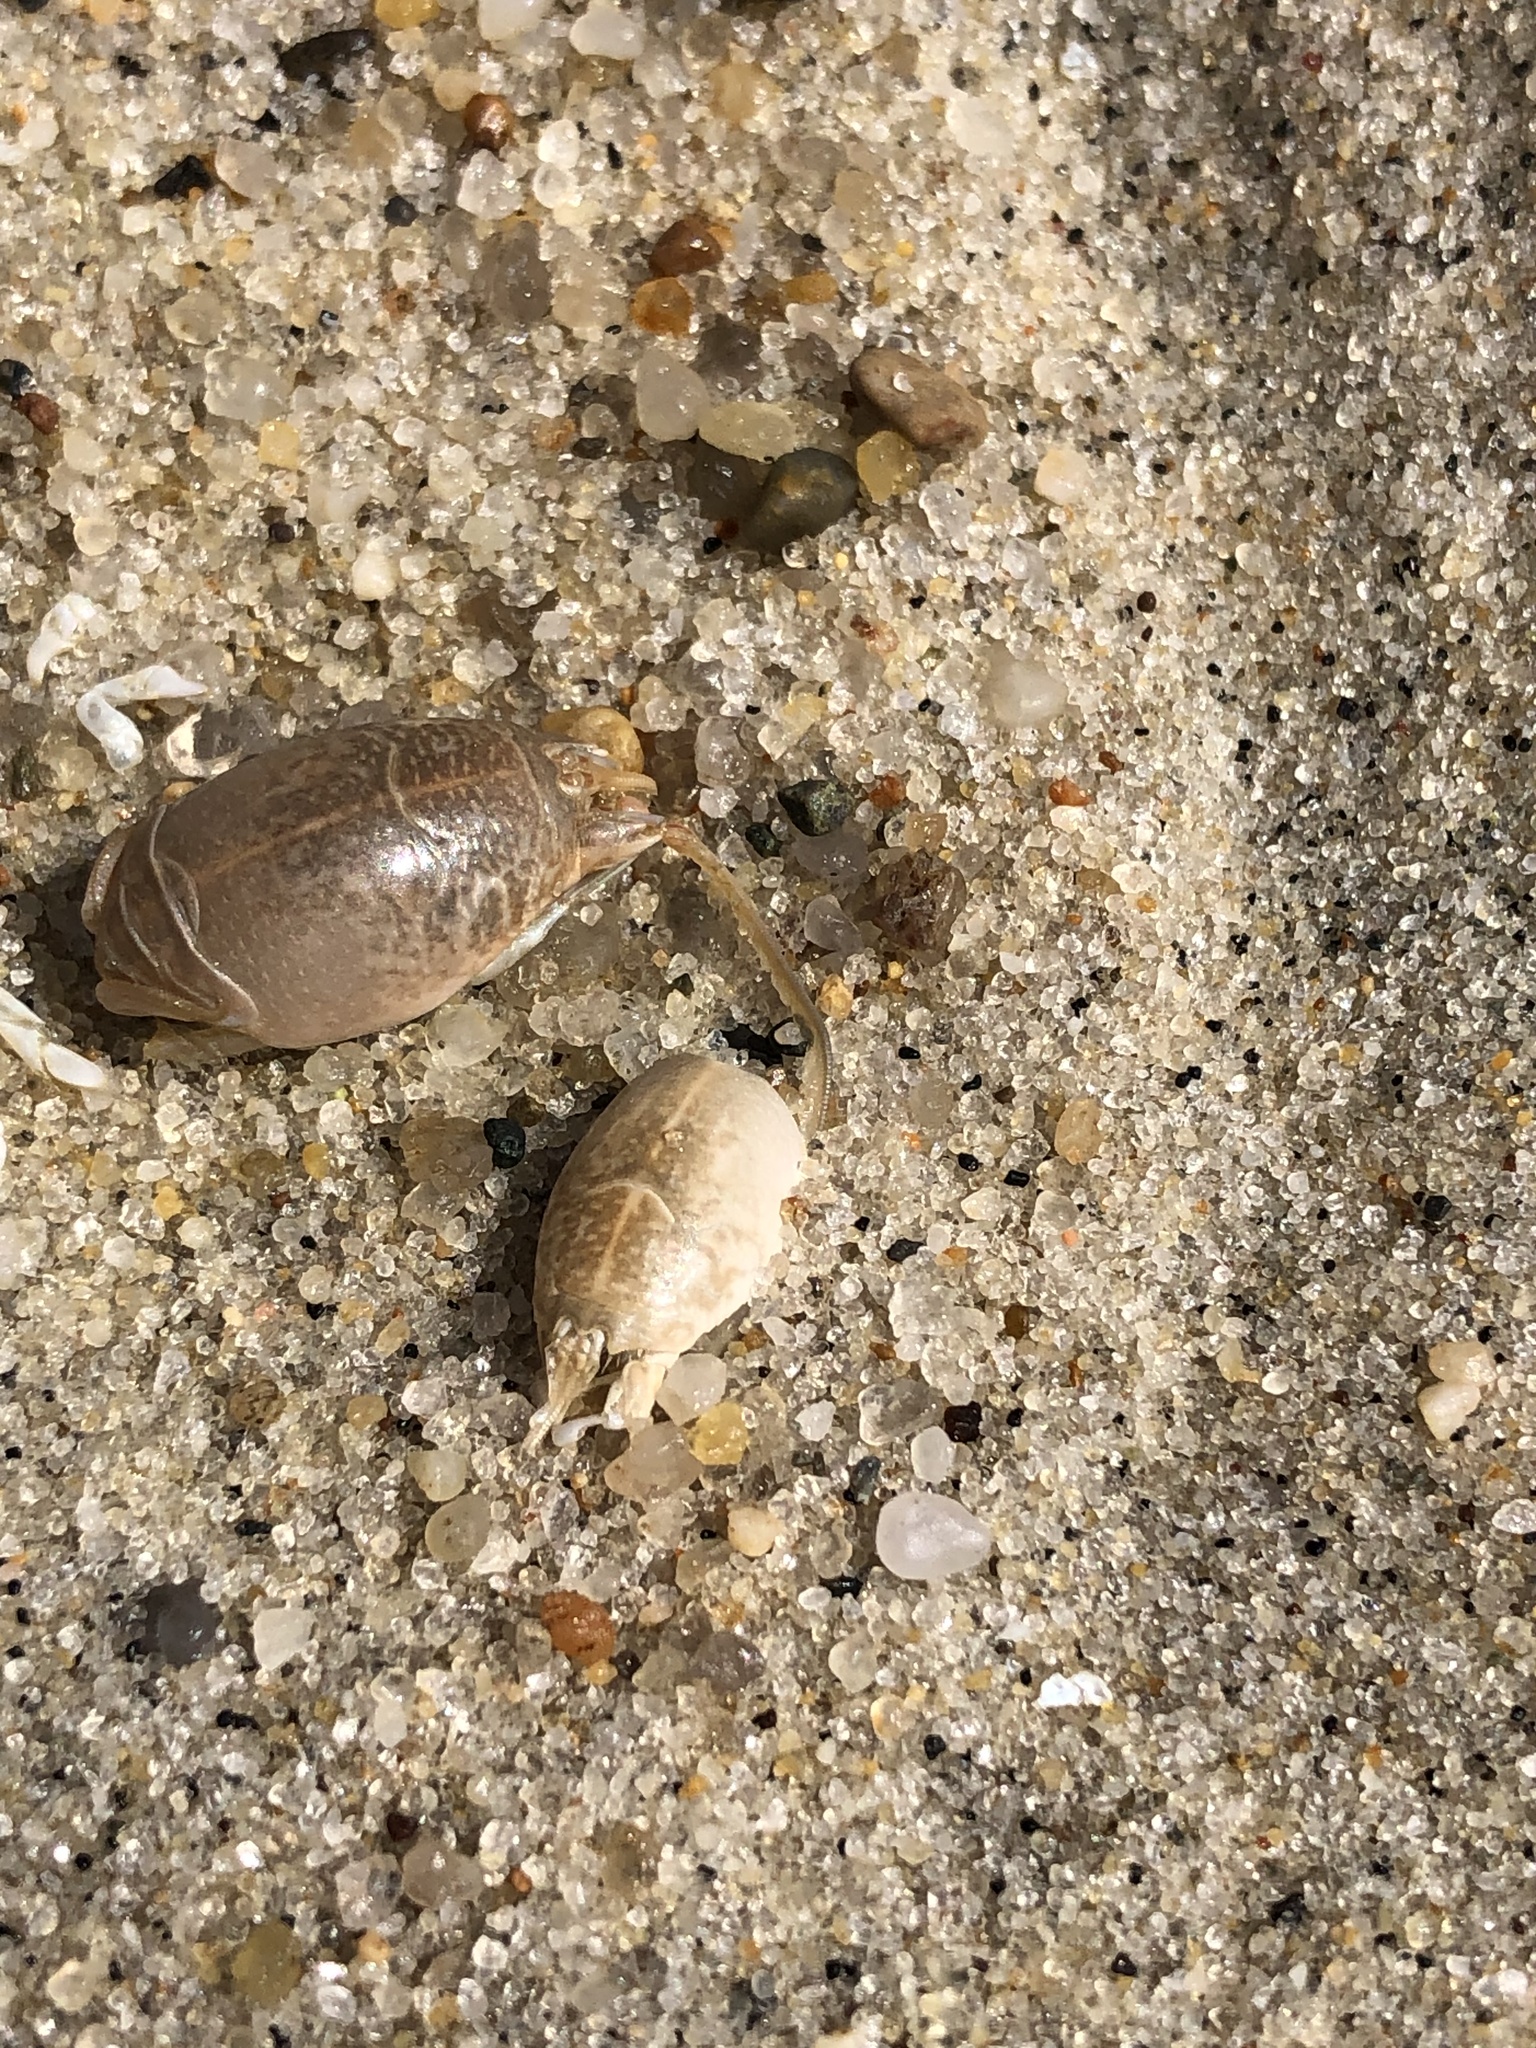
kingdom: Animalia
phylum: Arthropoda
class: Malacostraca
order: Decapoda
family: Hippidae
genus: Emerita
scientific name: Emerita talpoida
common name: Atlantic sand crab
